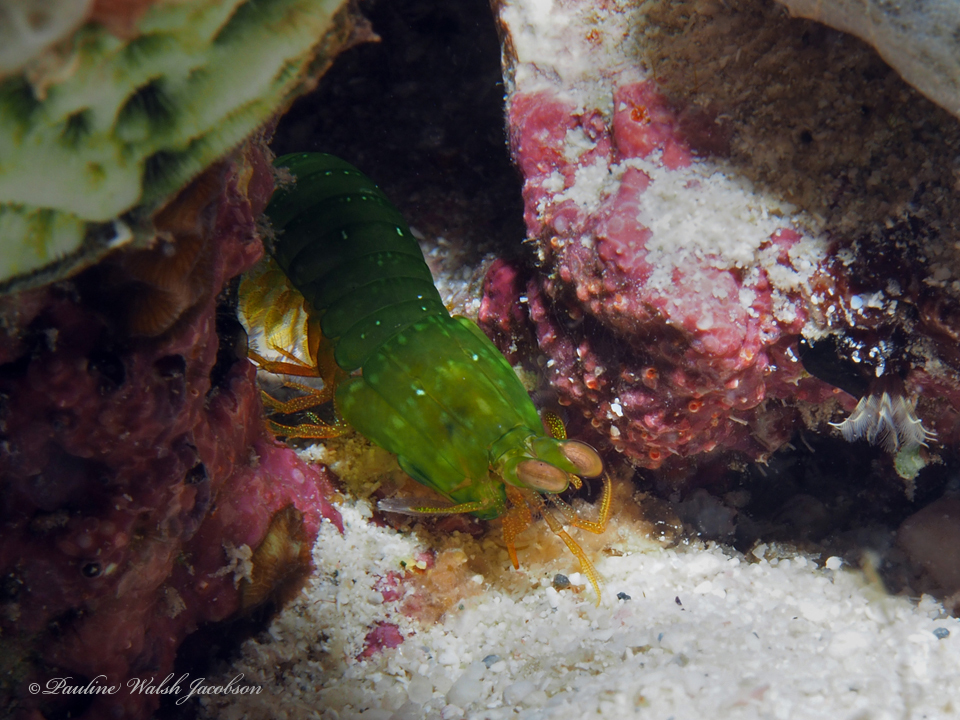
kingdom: Animalia
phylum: Arthropoda
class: Malacostraca
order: Stomatopoda
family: Gonodactylidae
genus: Neogonodactylus
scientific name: Neogonodactylus wennerae
